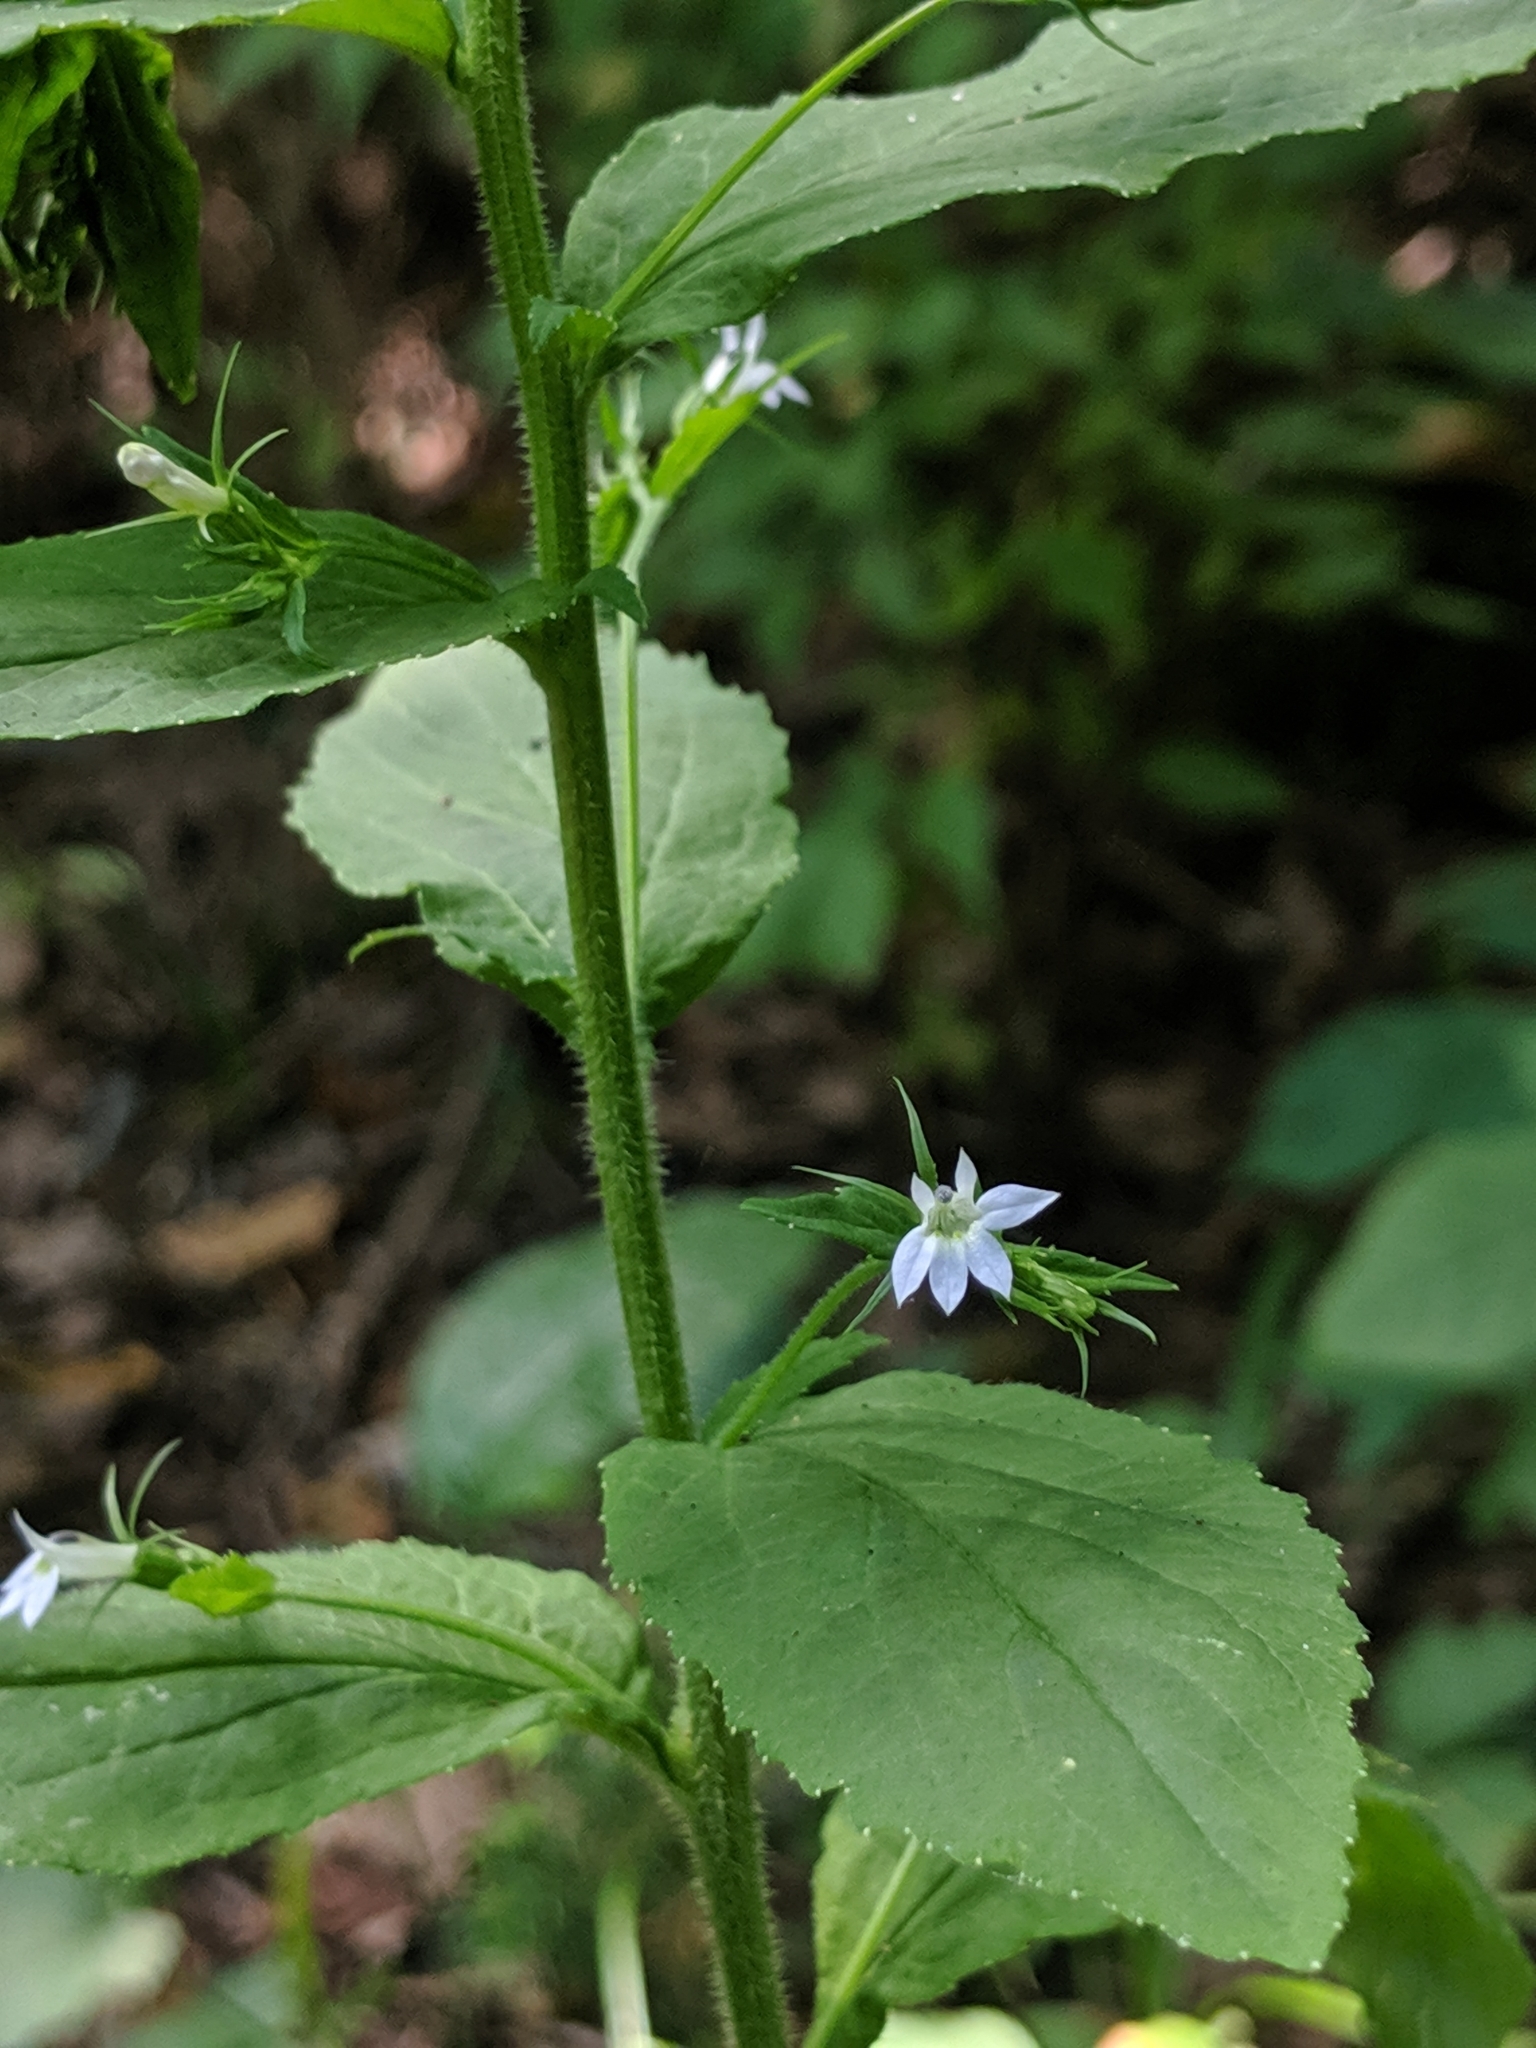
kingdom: Plantae
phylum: Tracheophyta
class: Magnoliopsida
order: Asterales
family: Campanulaceae
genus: Lobelia
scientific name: Lobelia inflata
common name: Indian tobacco
